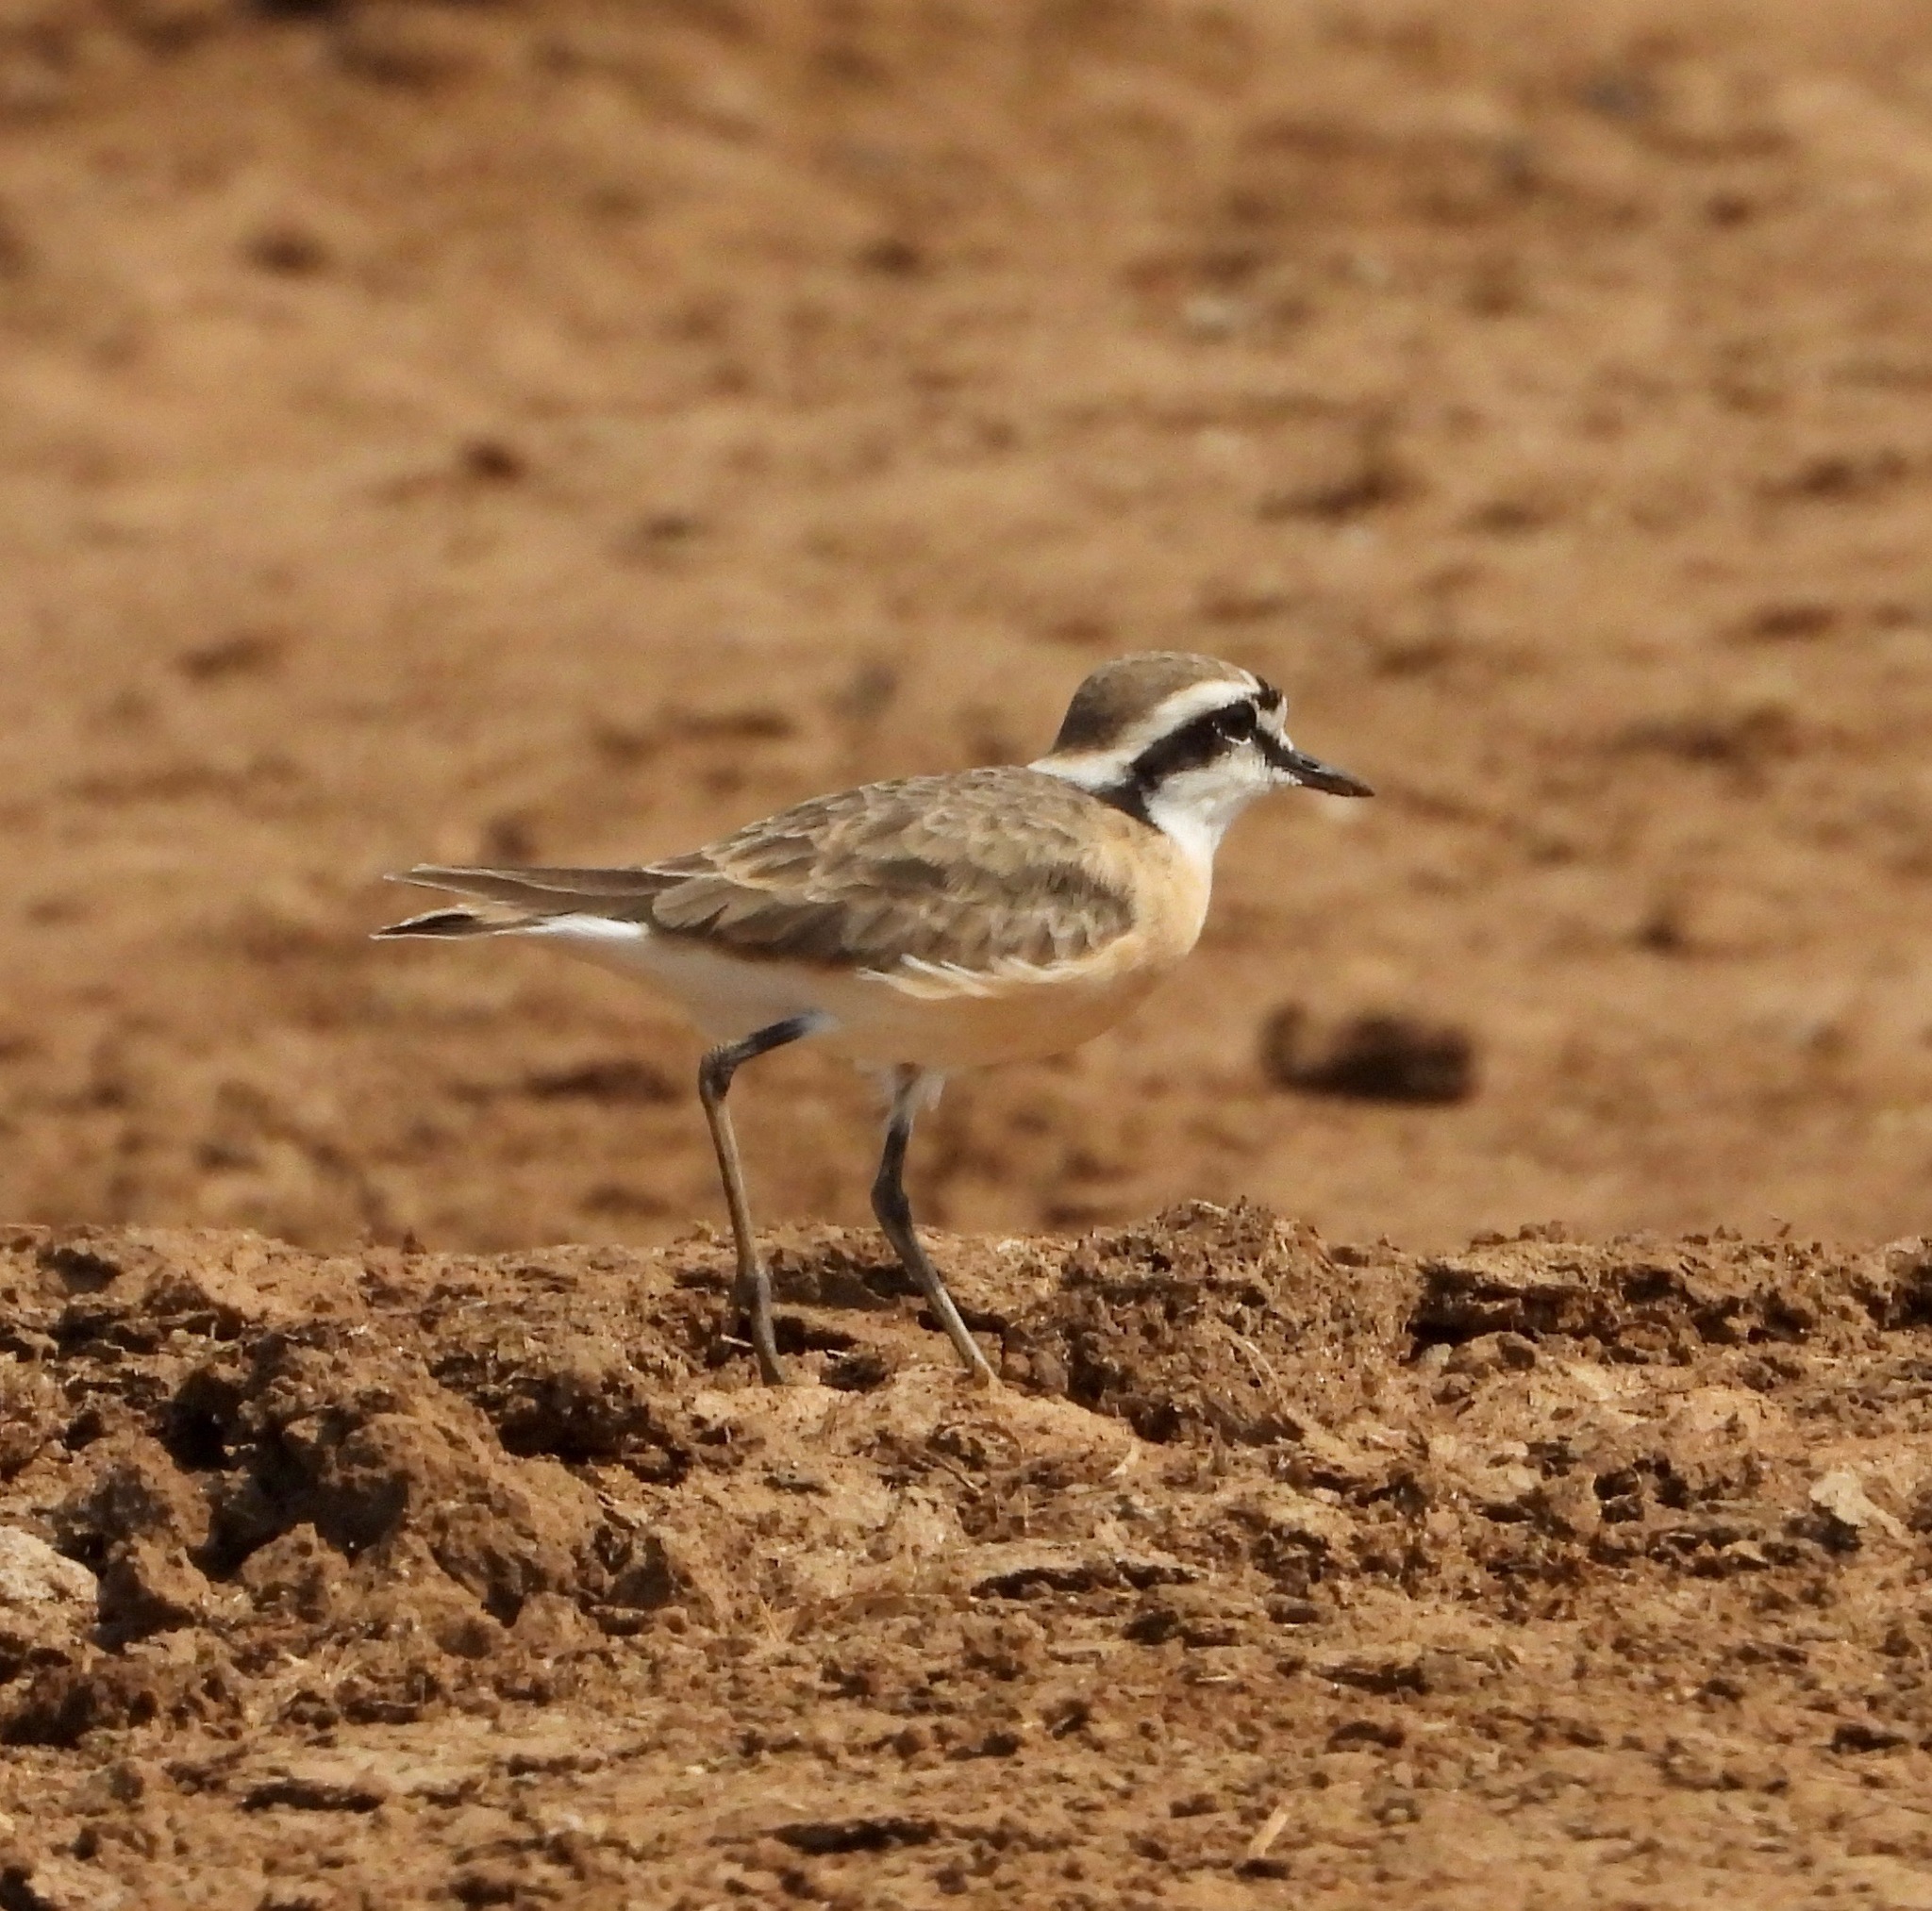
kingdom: Animalia
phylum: Chordata
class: Aves
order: Charadriiformes
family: Charadriidae
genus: Anarhynchus
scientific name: Anarhynchus
